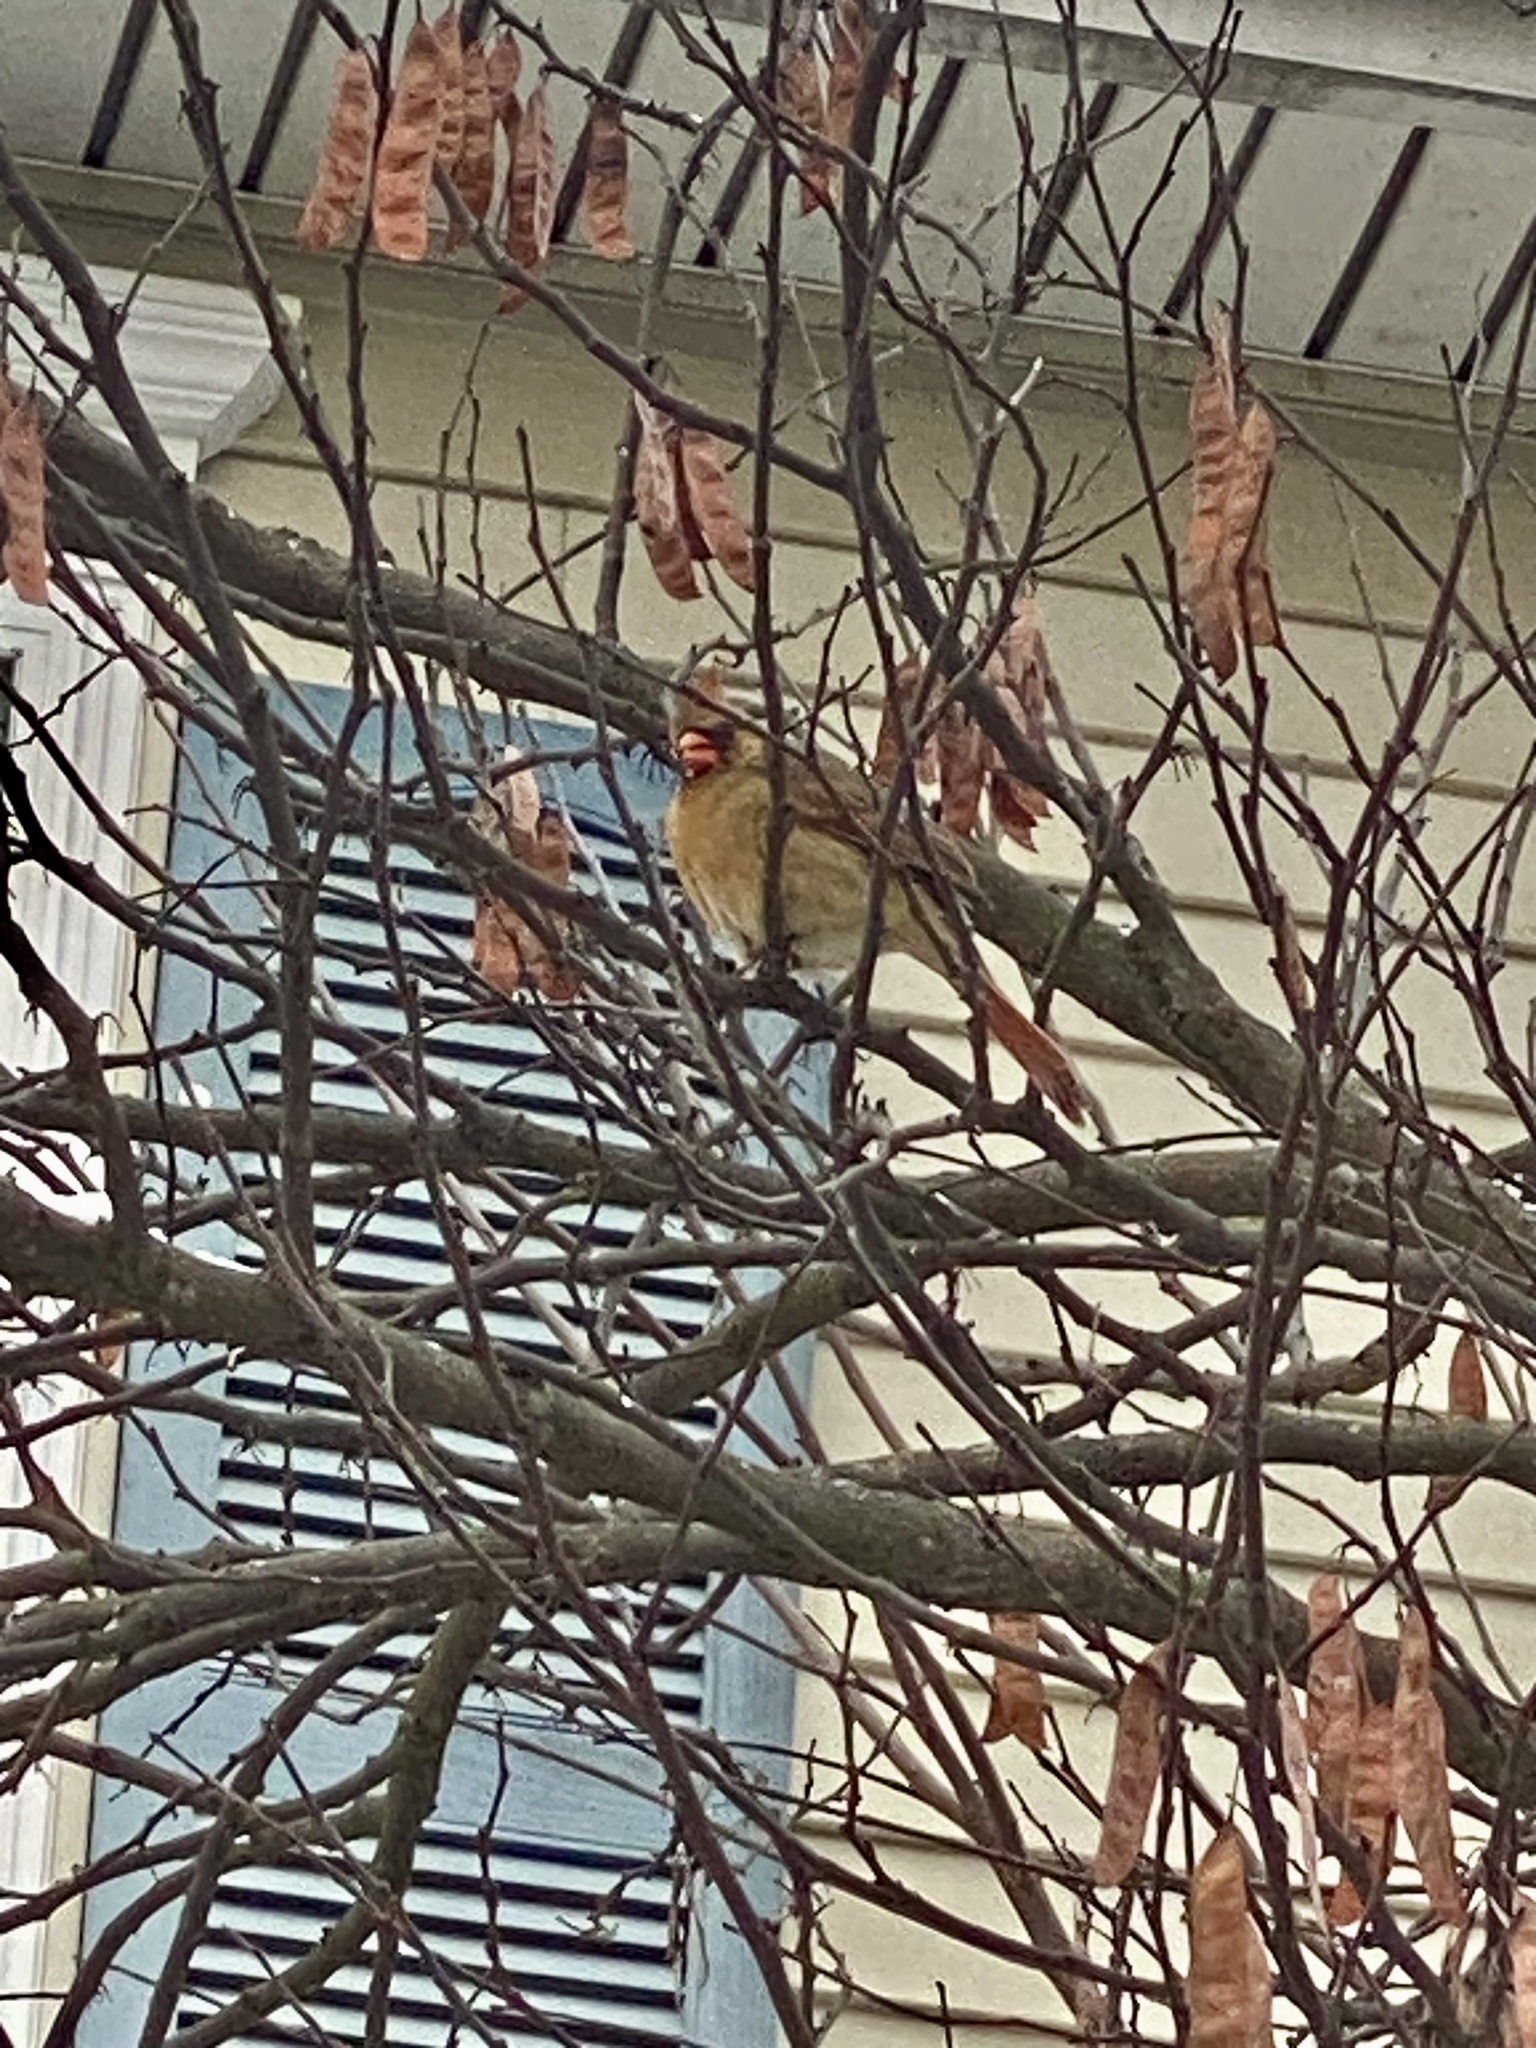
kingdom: Animalia
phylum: Chordata
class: Aves
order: Passeriformes
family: Cardinalidae
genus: Cardinalis
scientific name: Cardinalis cardinalis
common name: Northern cardinal
